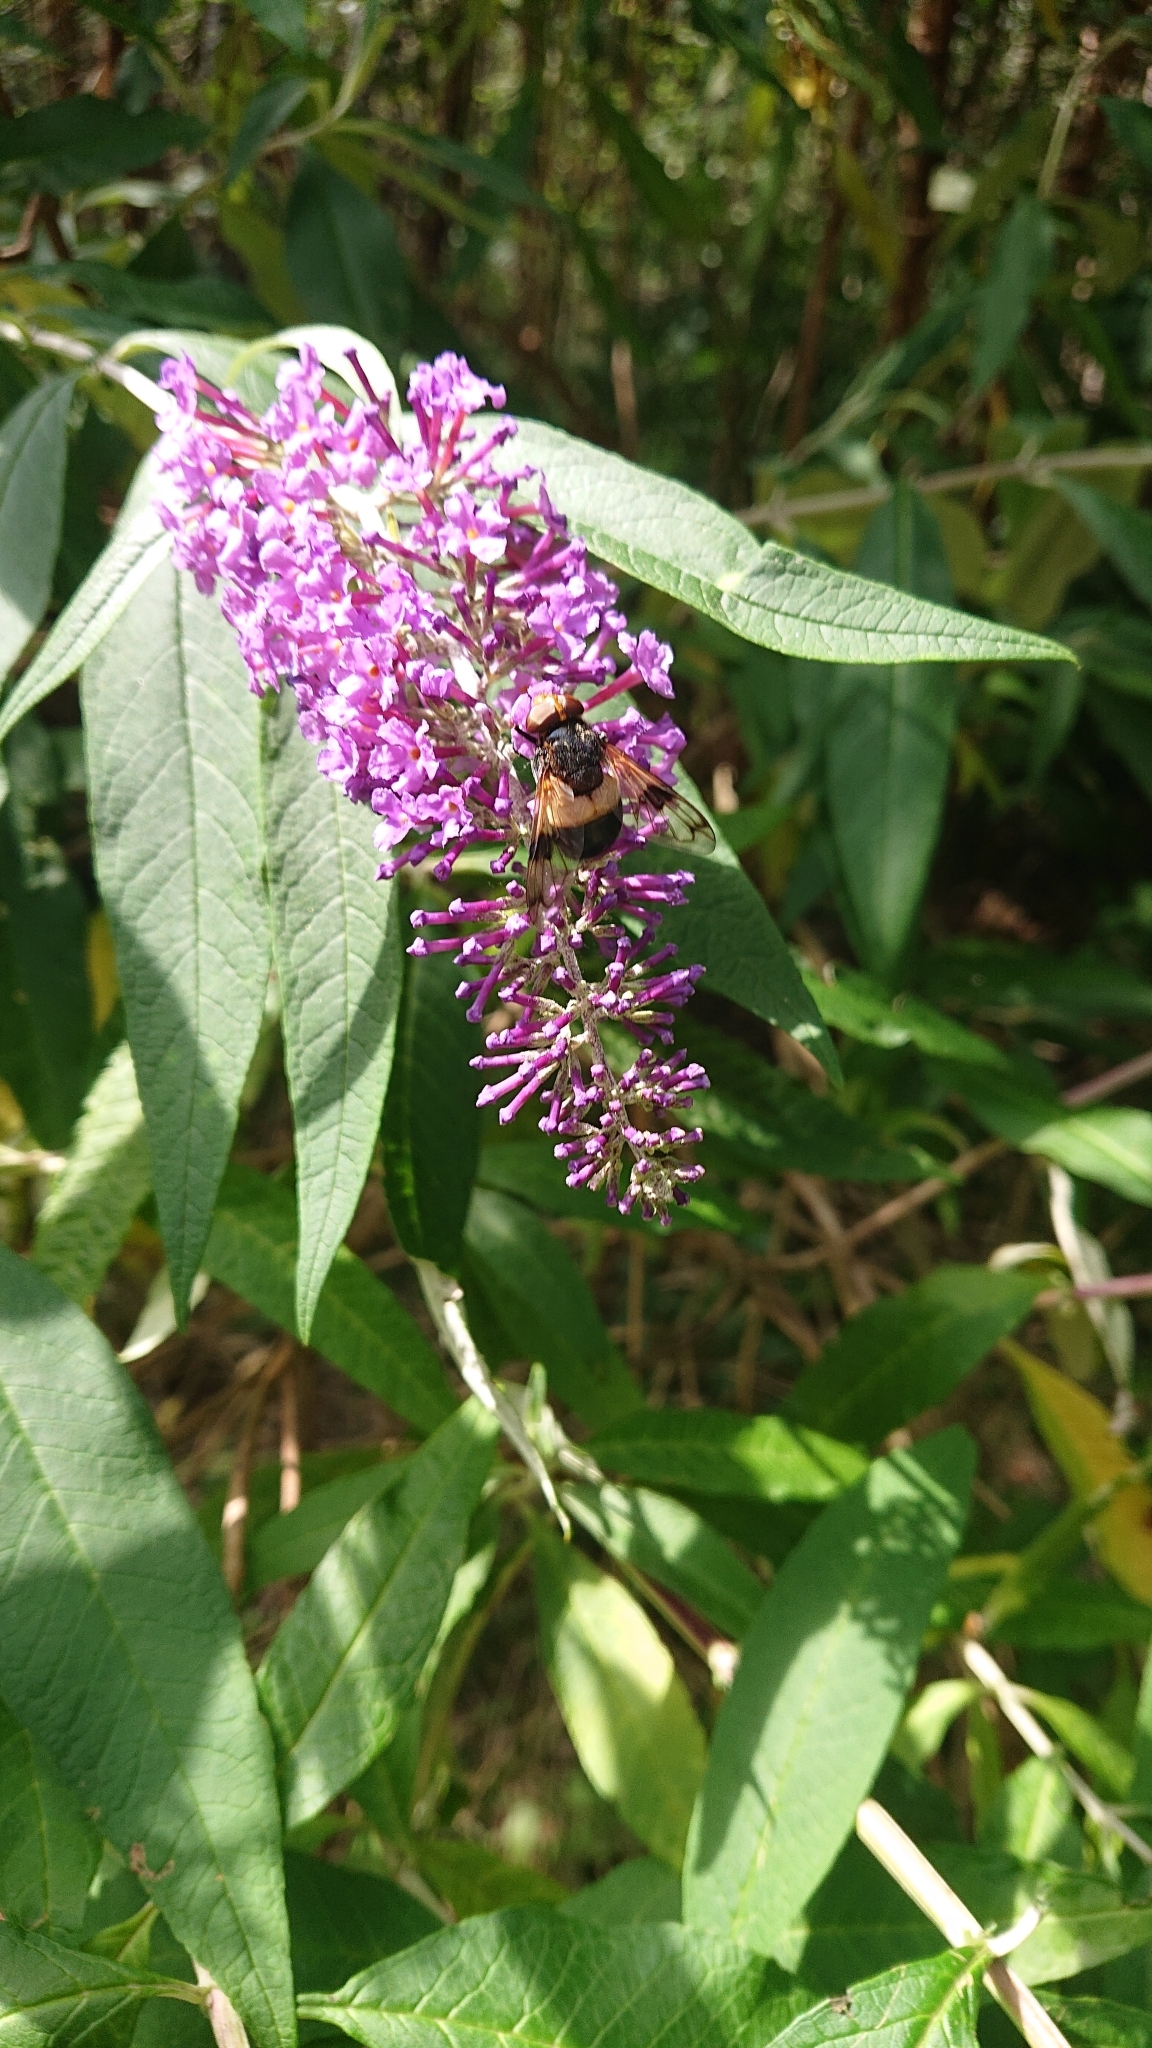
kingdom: Animalia
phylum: Arthropoda
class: Insecta
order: Diptera
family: Syrphidae
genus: Volucella
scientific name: Volucella pellucens
